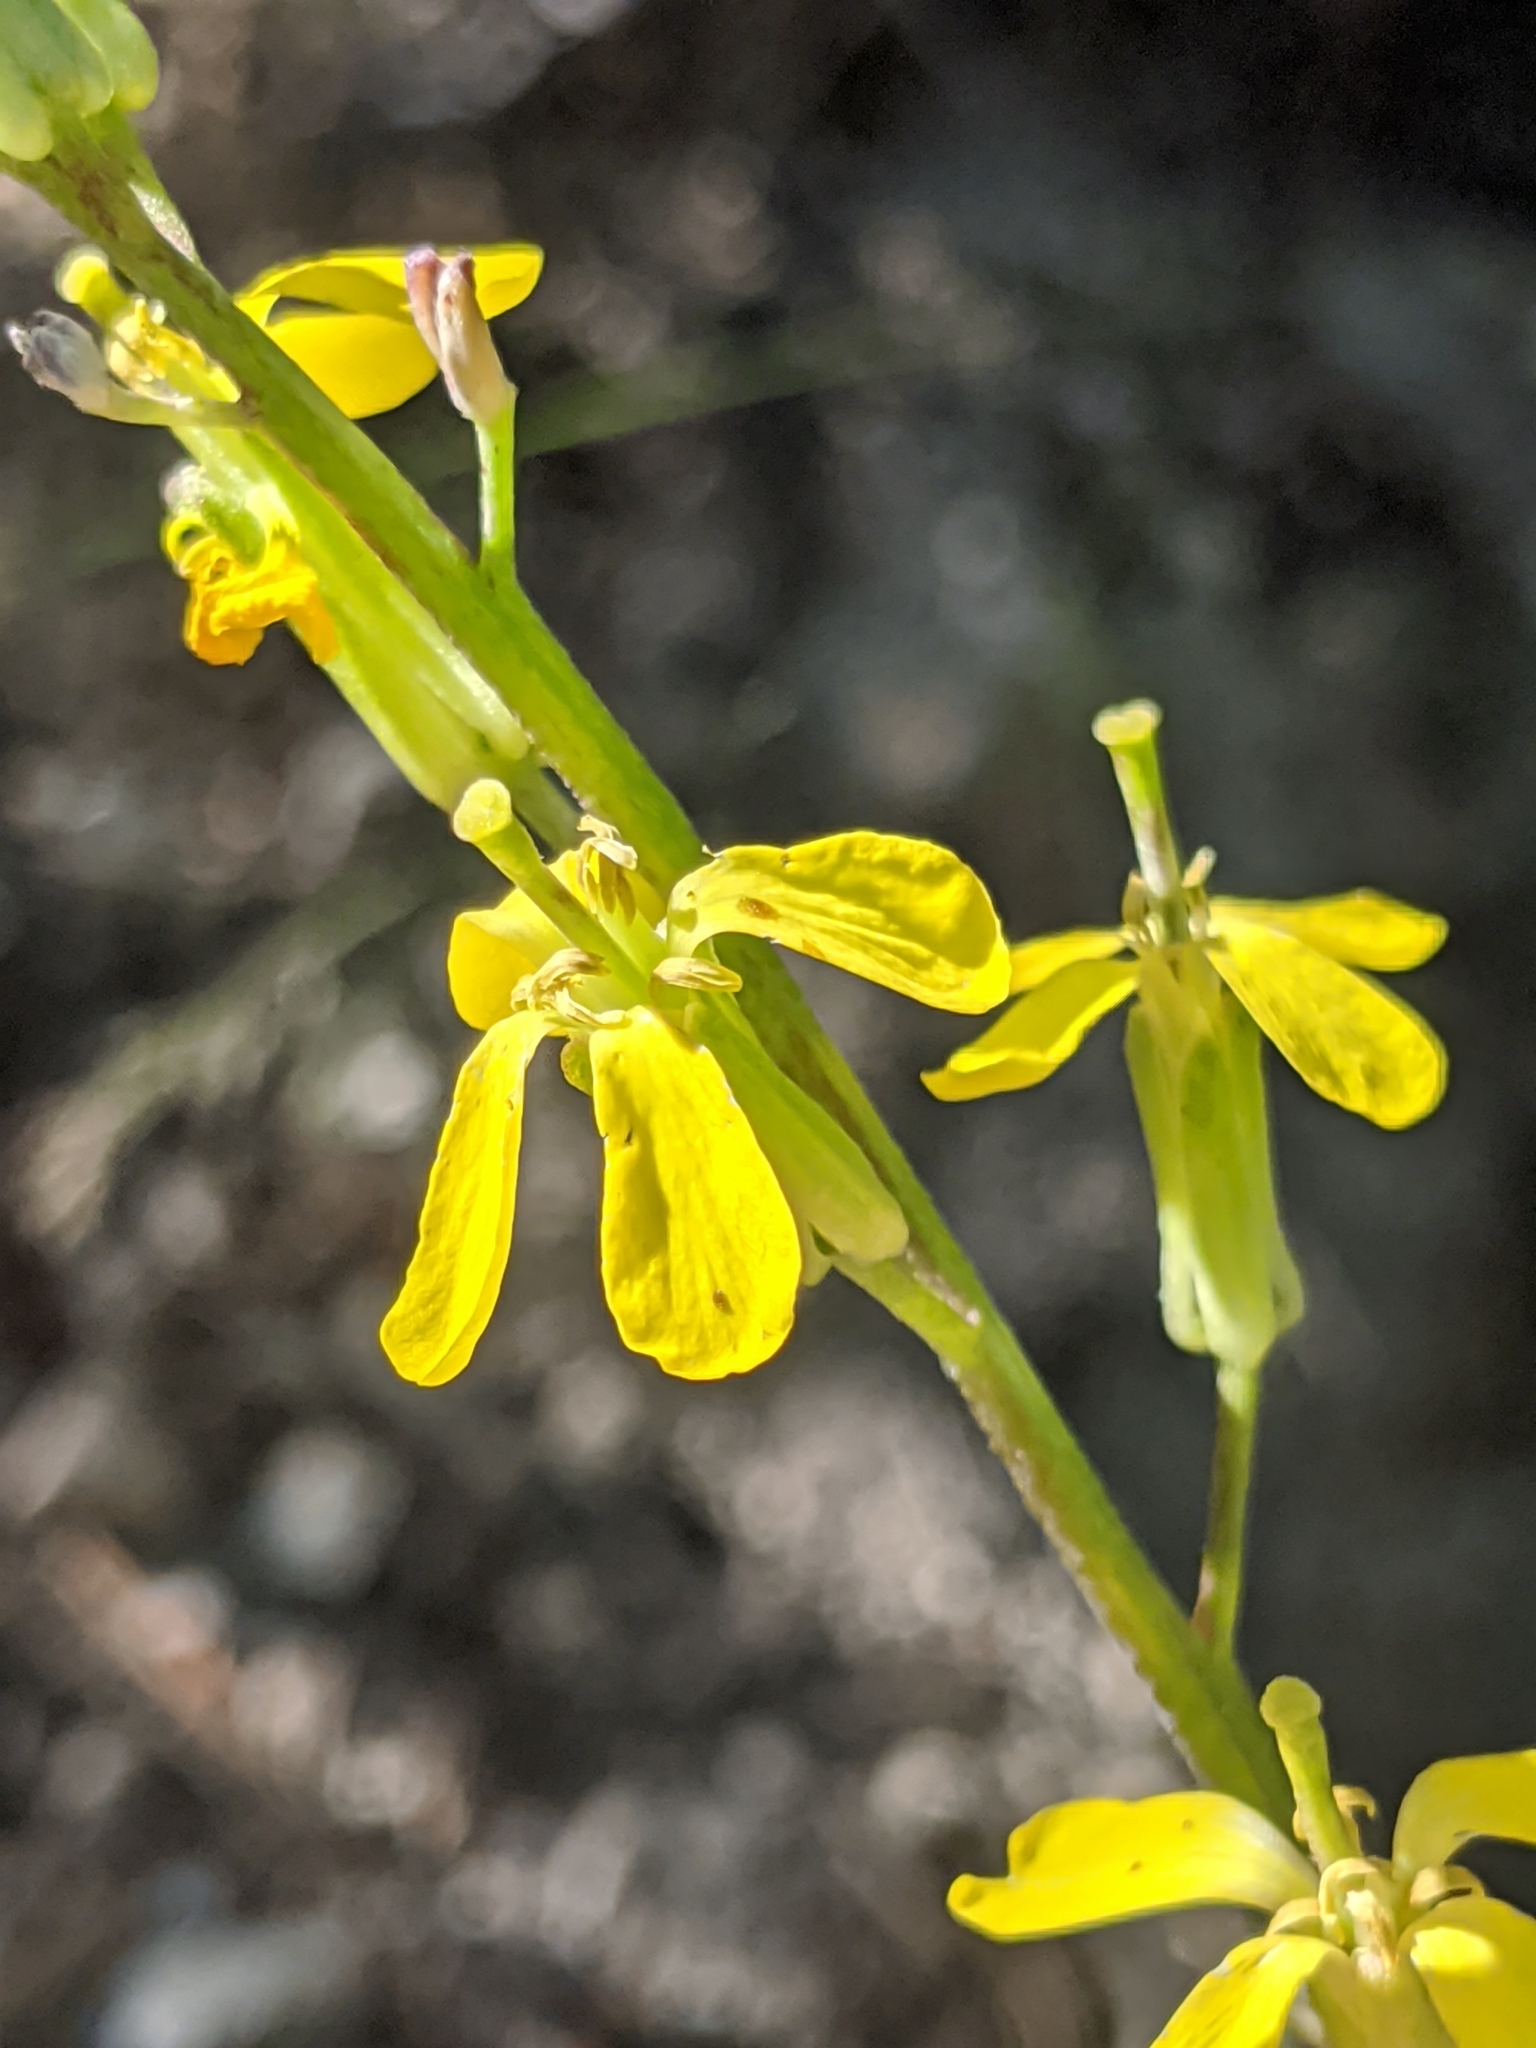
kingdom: Plantae
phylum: Tracheophyta
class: Magnoliopsida
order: Brassicales
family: Brassicaceae
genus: Erysimum
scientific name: Erysimum capitatum
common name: Western wallflower
